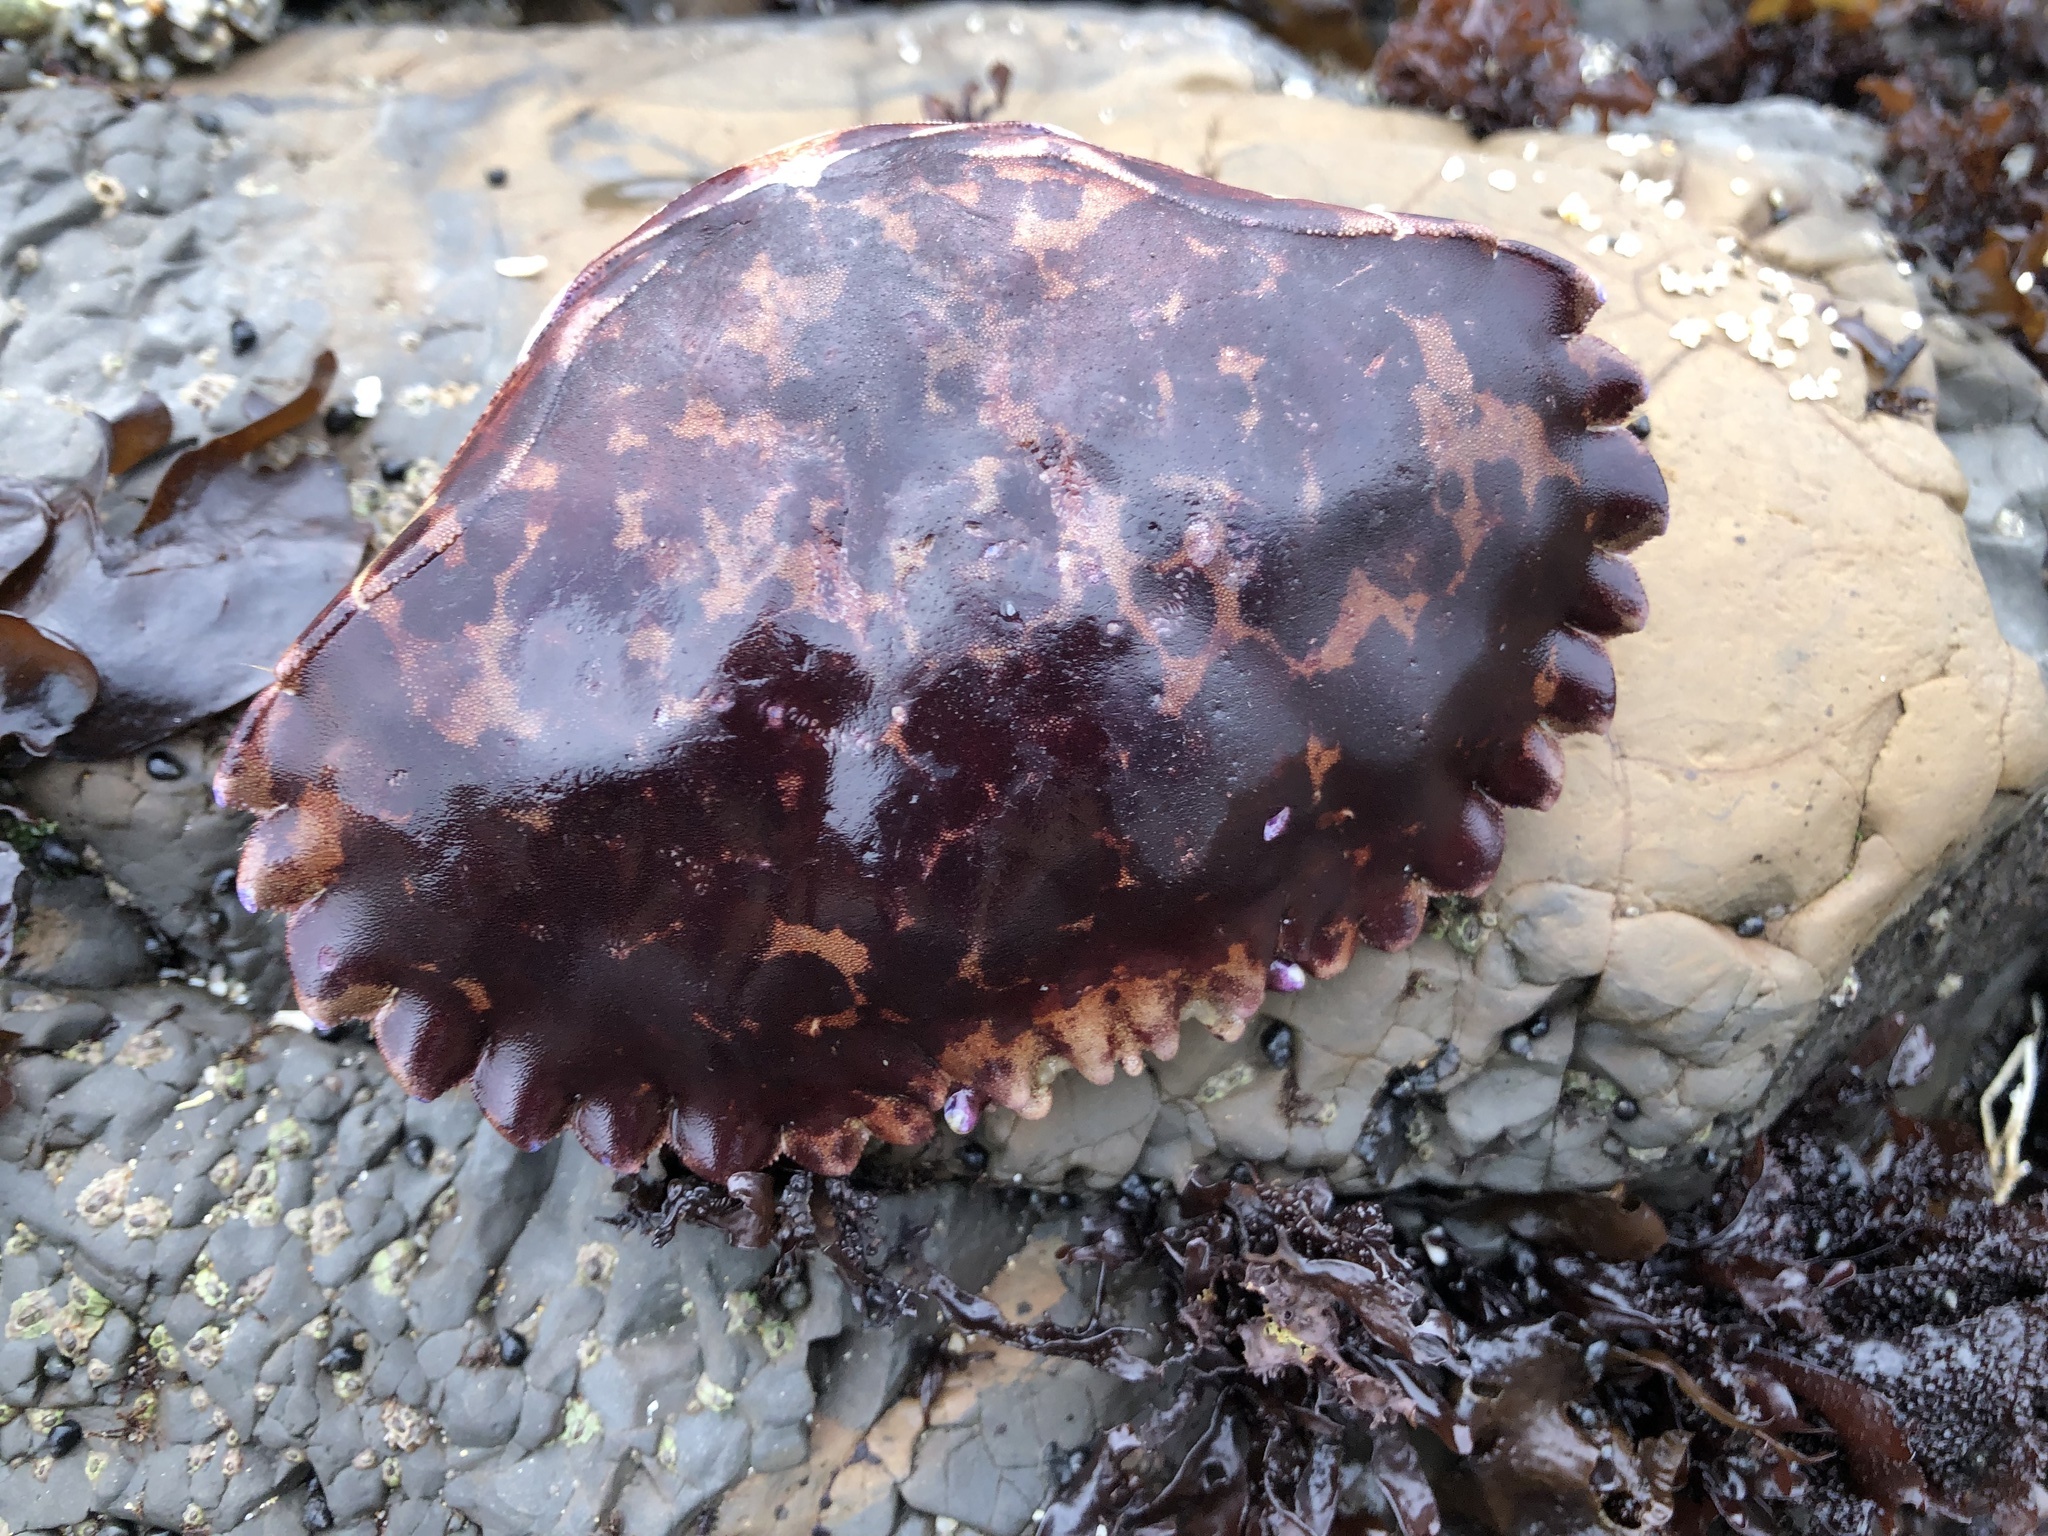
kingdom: Animalia
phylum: Arthropoda
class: Malacostraca
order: Decapoda
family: Cancridae
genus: Romaleon
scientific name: Romaleon antennarium
